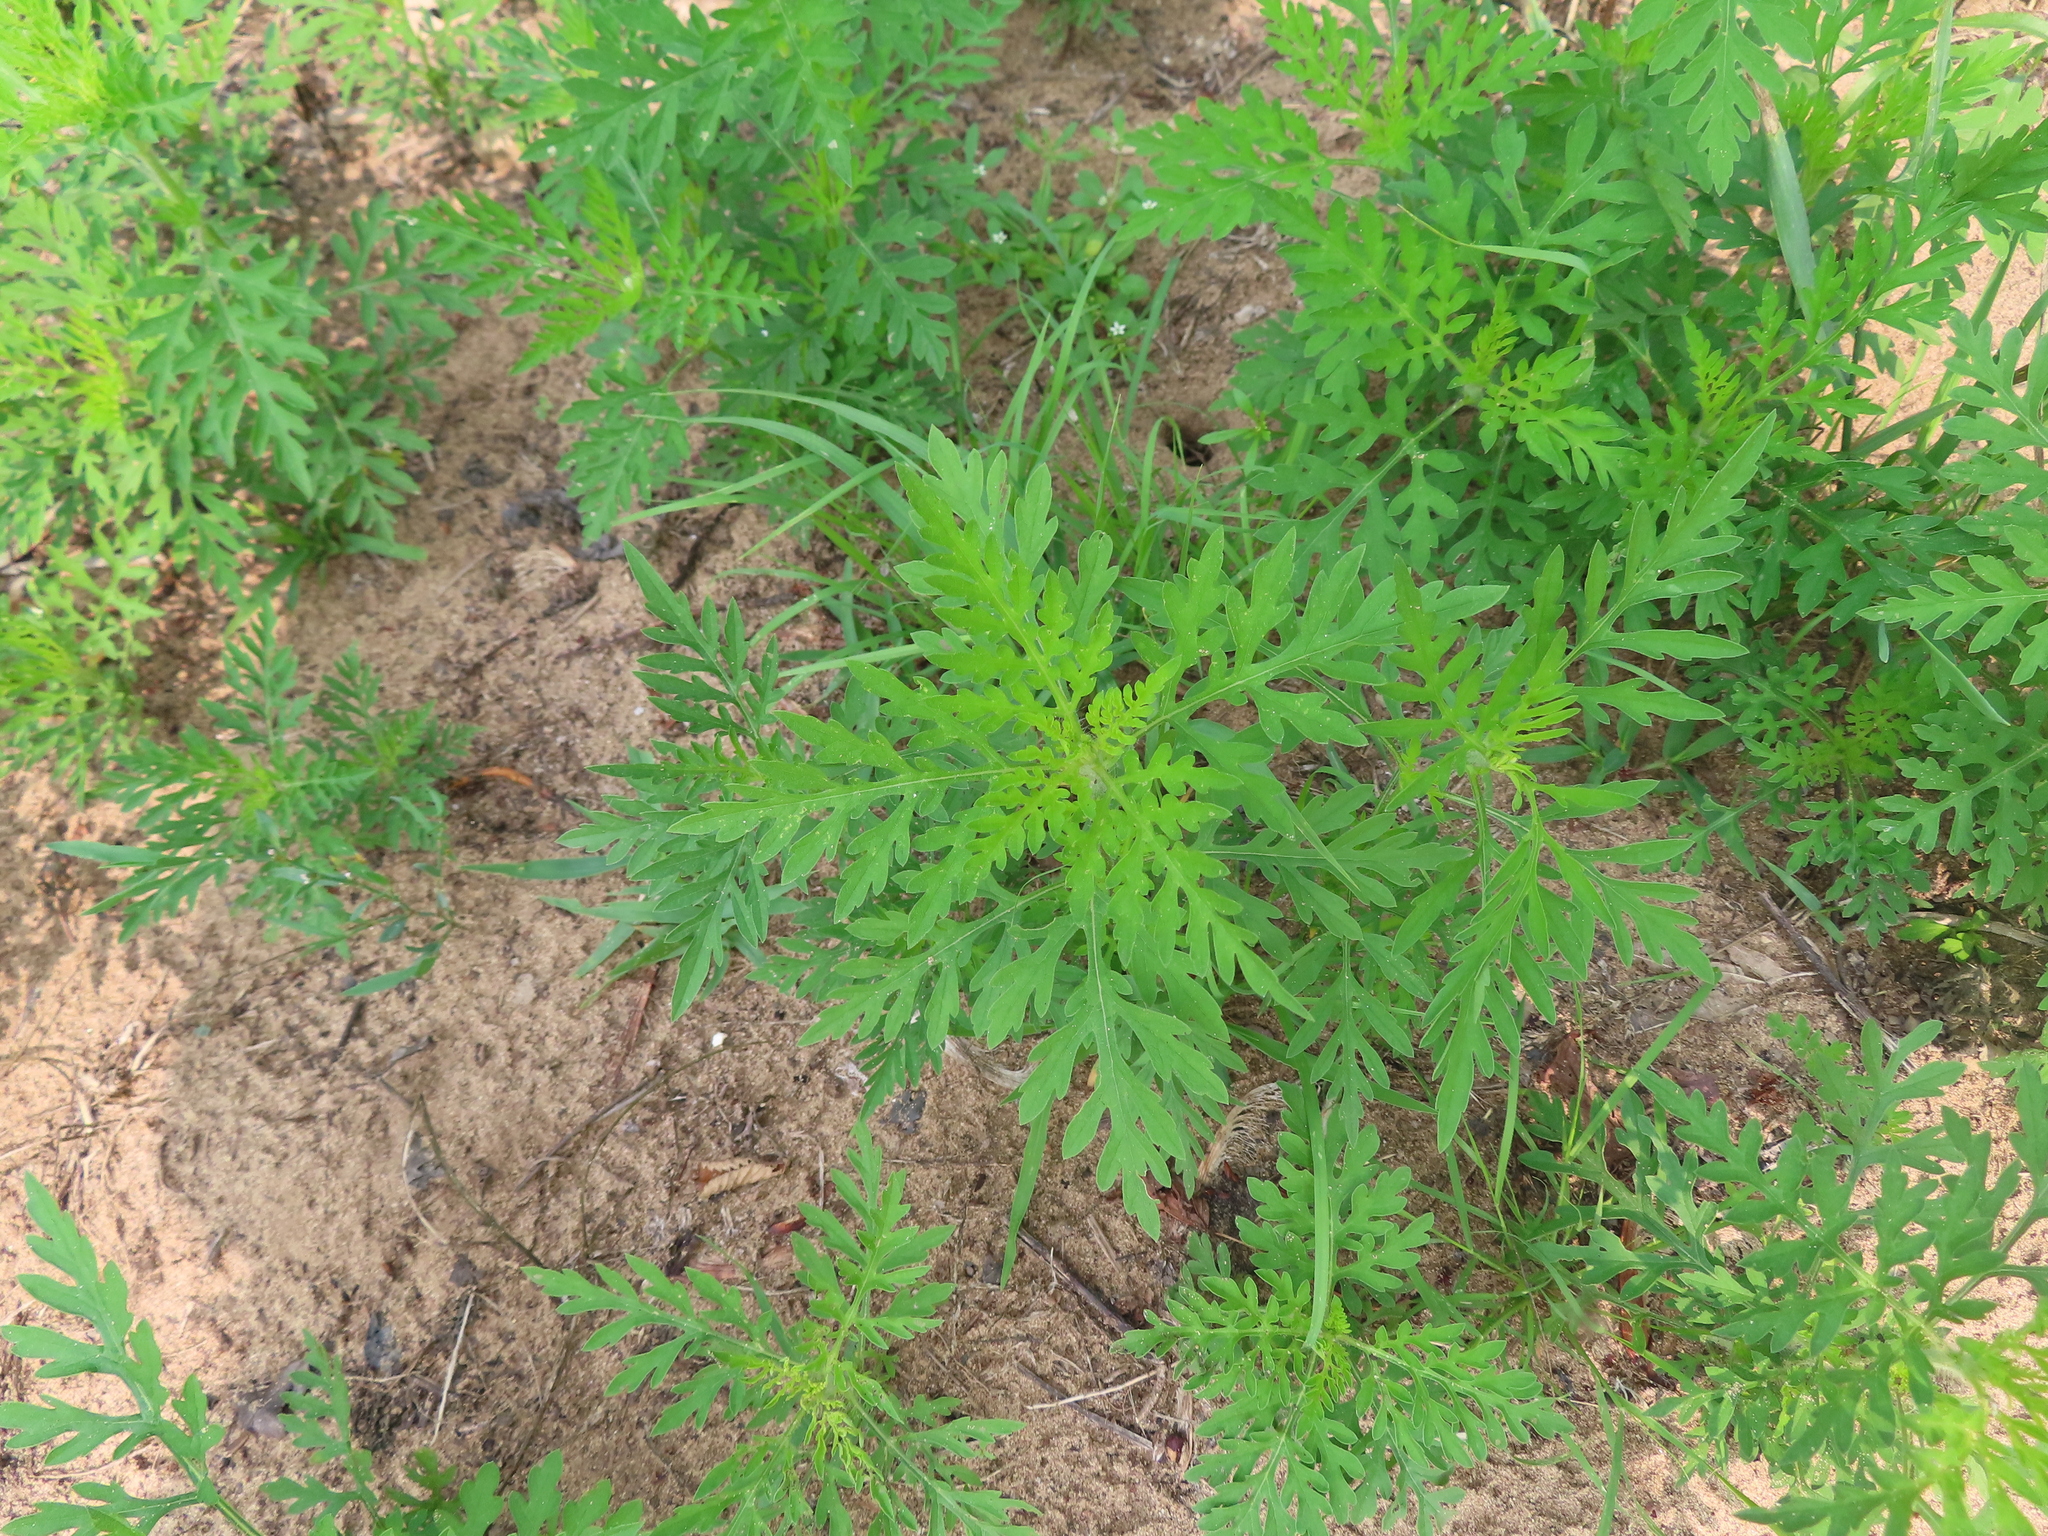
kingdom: Plantae
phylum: Tracheophyta
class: Magnoliopsida
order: Asterales
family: Asteraceae
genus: Ambrosia
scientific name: Ambrosia artemisiifolia
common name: Annual ragweed
